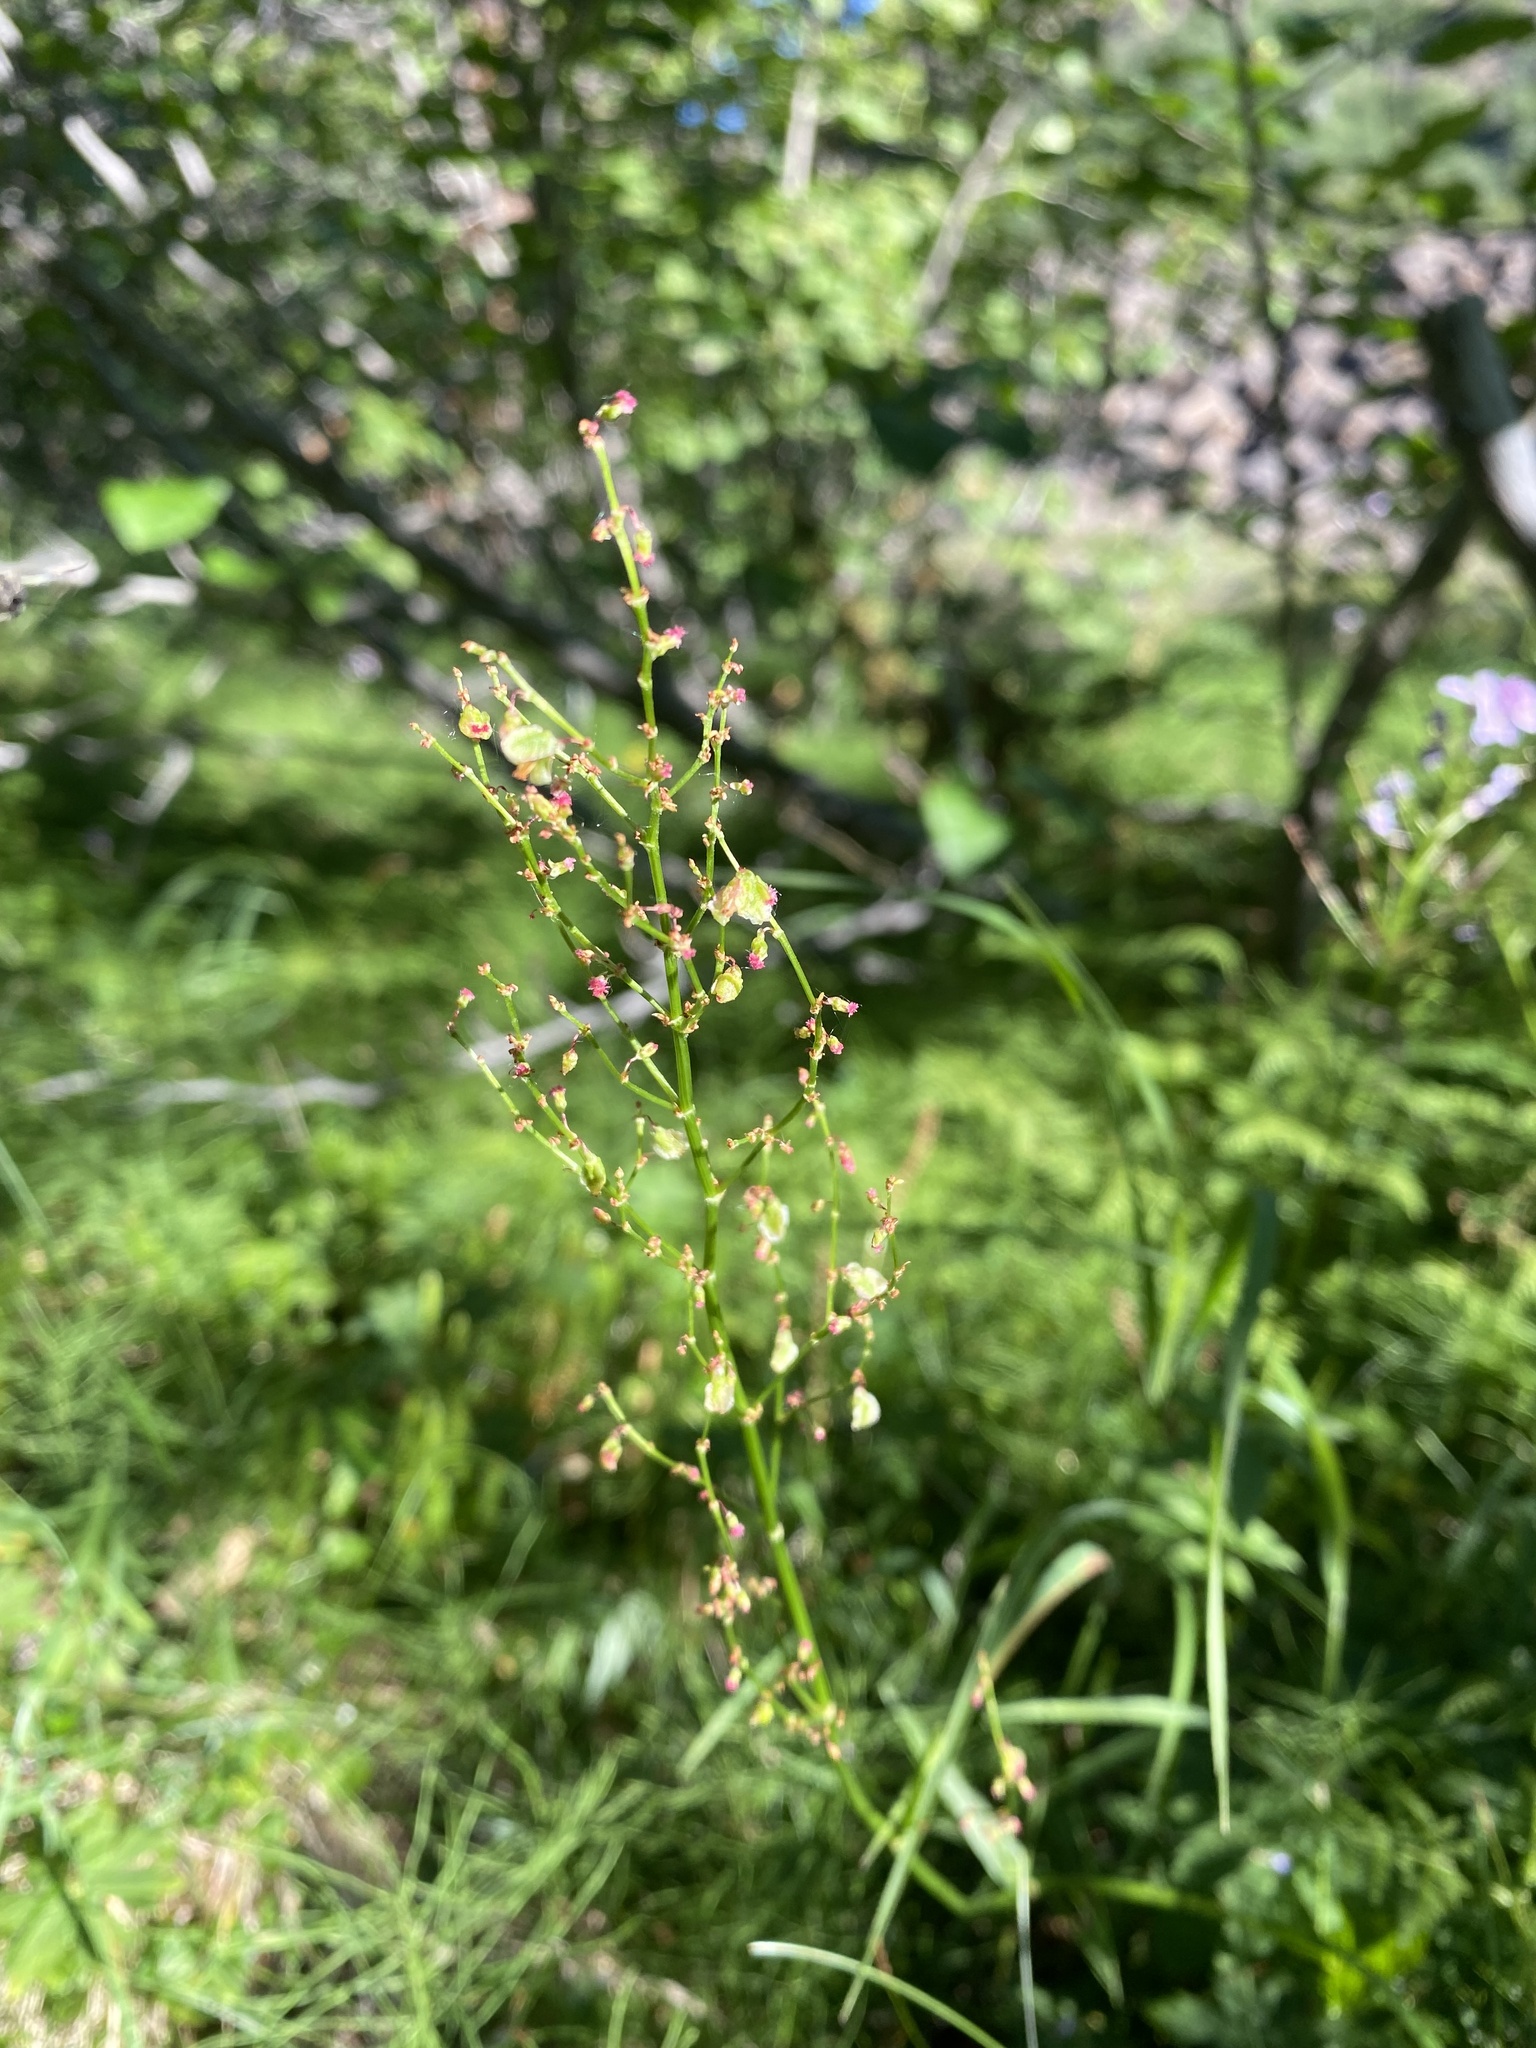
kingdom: Plantae
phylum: Tracheophyta
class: Magnoliopsida
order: Caryophyllales
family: Polygonaceae
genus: Rumex
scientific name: Rumex lapponicus
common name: Lapland mountain sorrel
